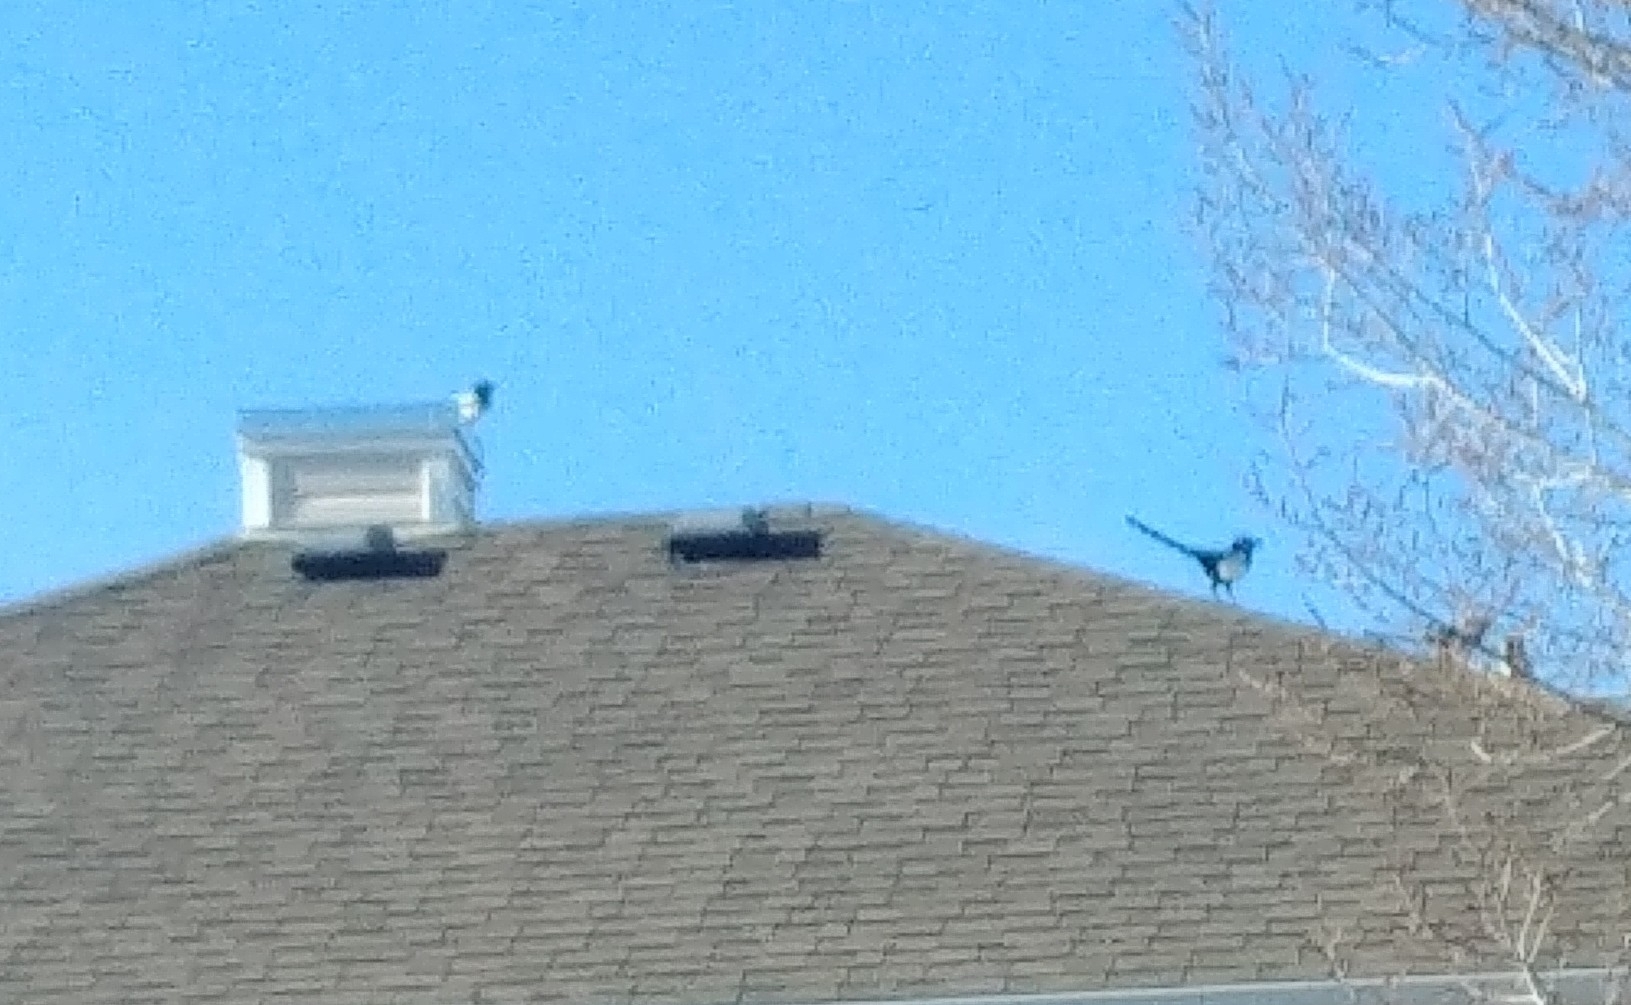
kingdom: Animalia
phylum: Chordata
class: Aves
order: Passeriformes
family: Corvidae
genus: Pica
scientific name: Pica hudsonia
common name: Black-billed magpie
